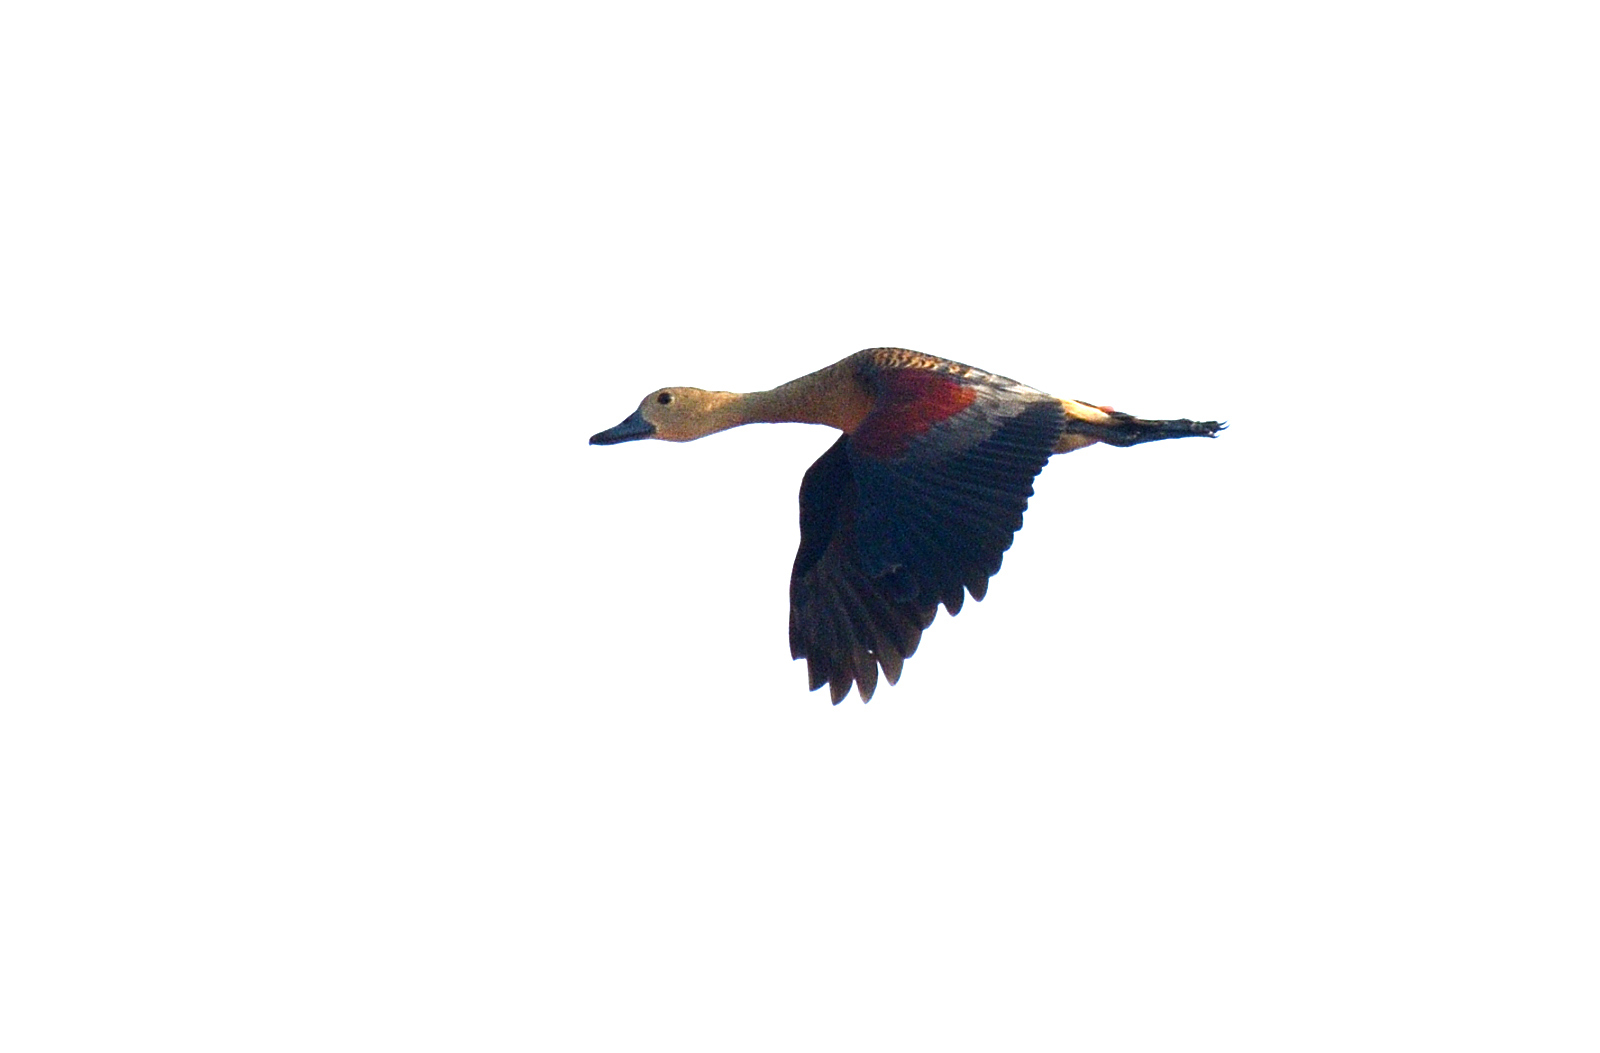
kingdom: Animalia
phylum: Chordata
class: Aves
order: Anseriformes
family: Anatidae
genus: Dendrocygna
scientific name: Dendrocygna javanica
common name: Lesser whistling-duck
